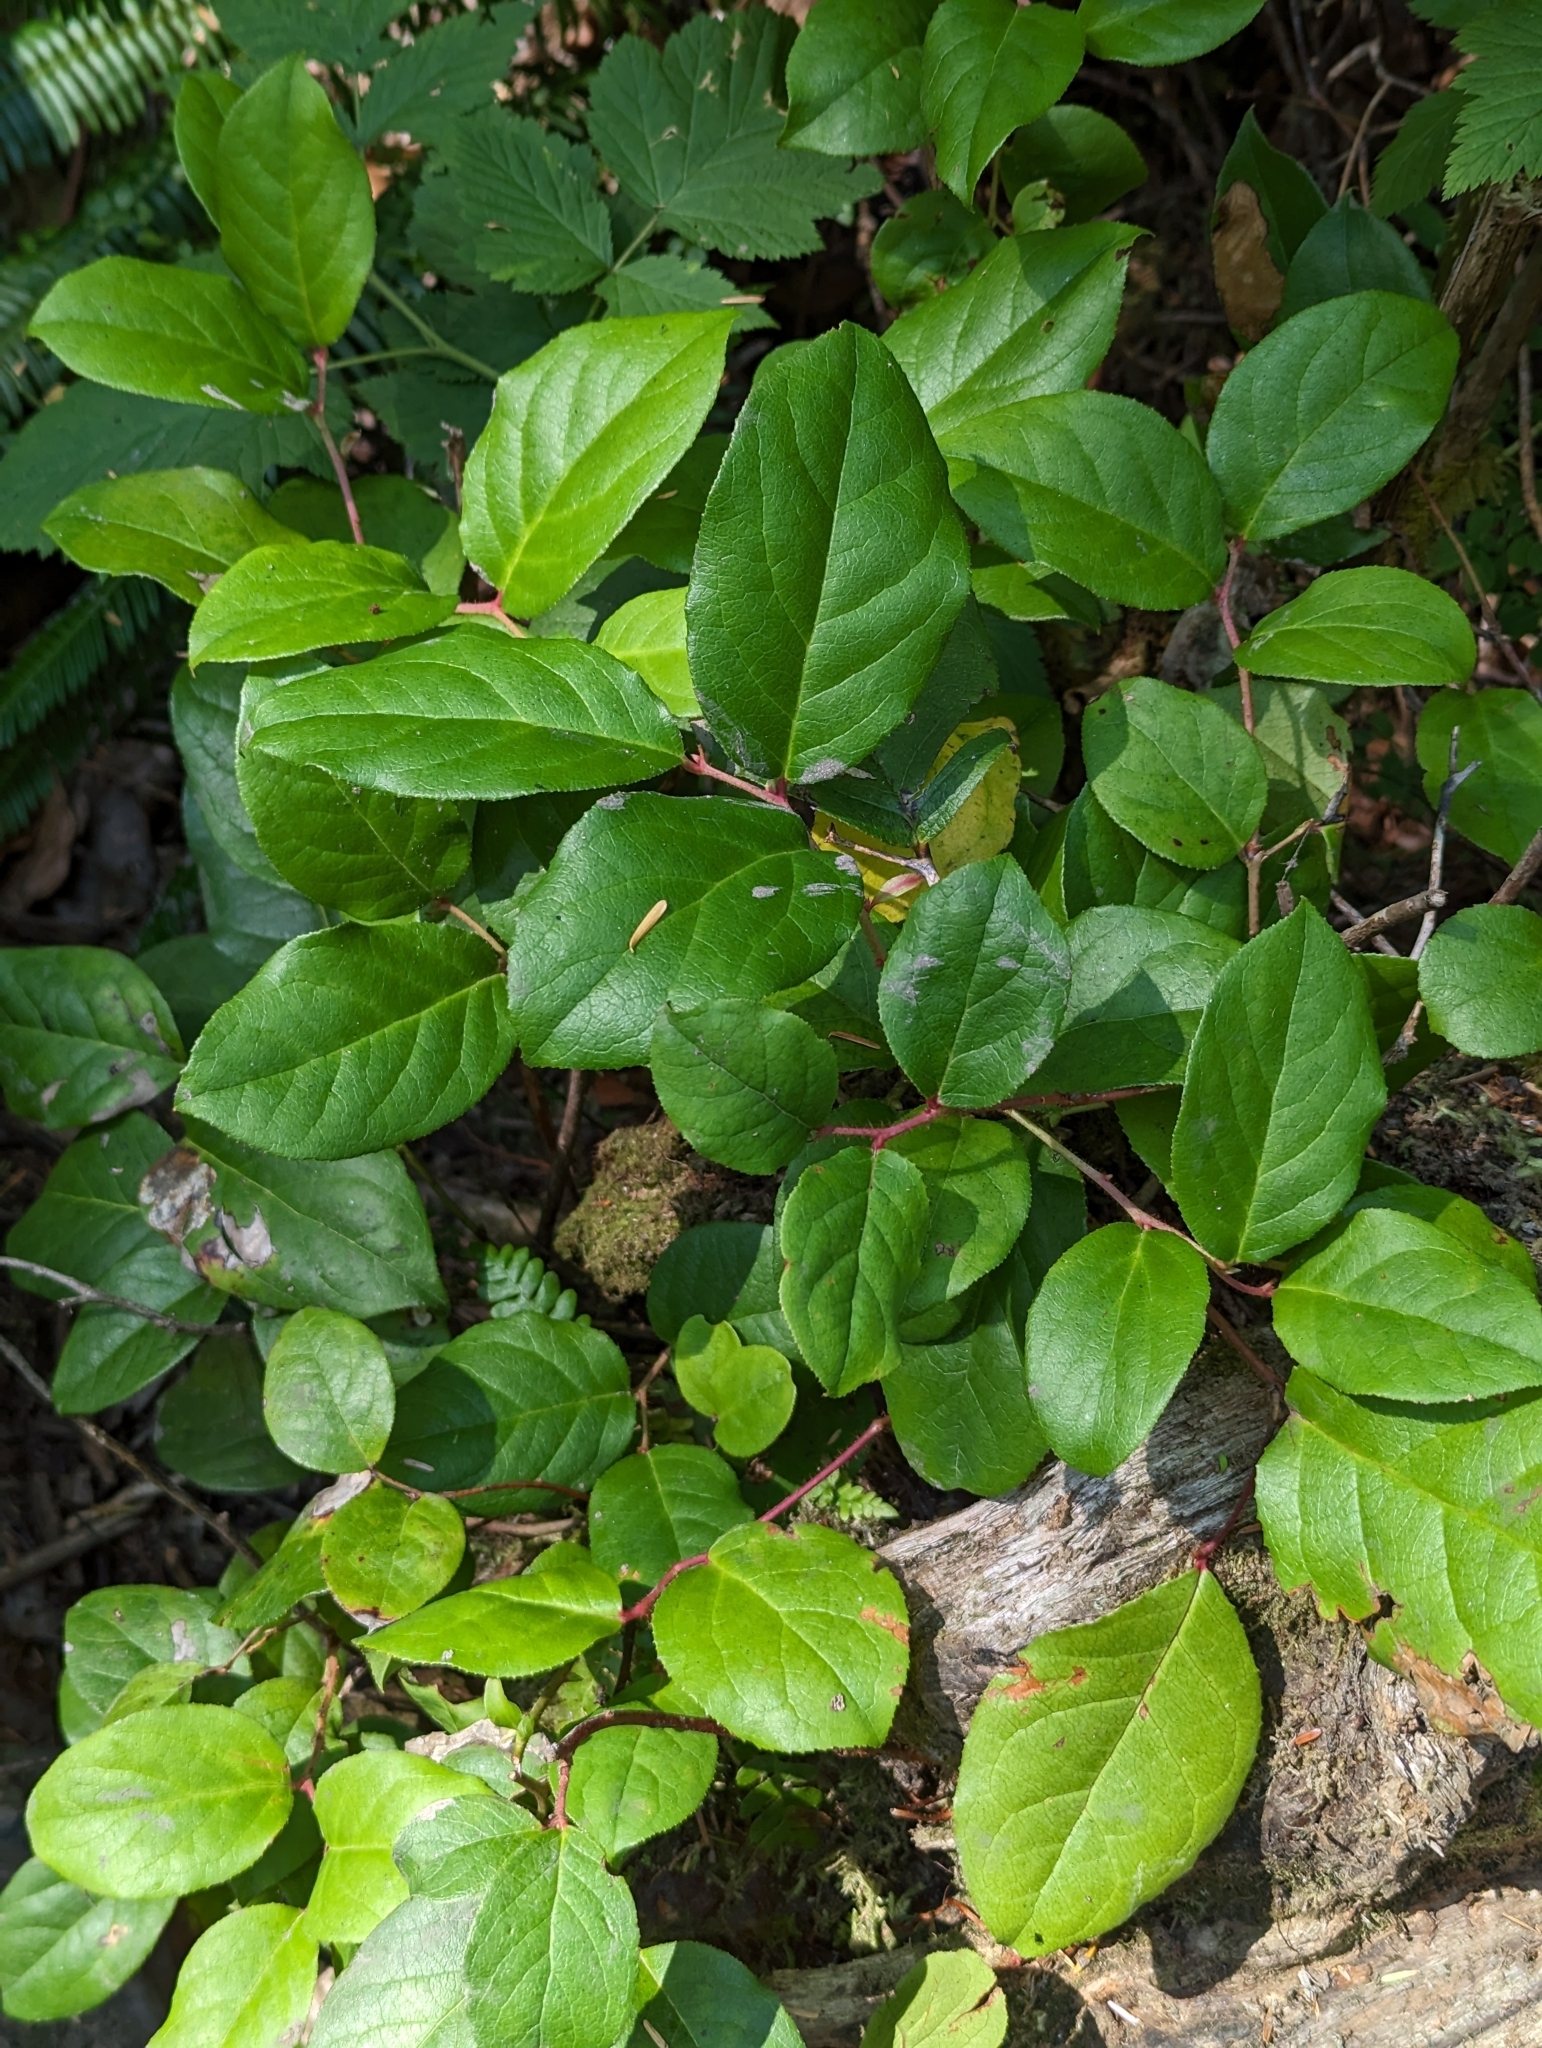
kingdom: Plantae
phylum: Tracheophyta
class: Magnoliopsida
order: Ericales
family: Ericaceae
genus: Gaultheria
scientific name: Gaultheria shallon
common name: Shallon
